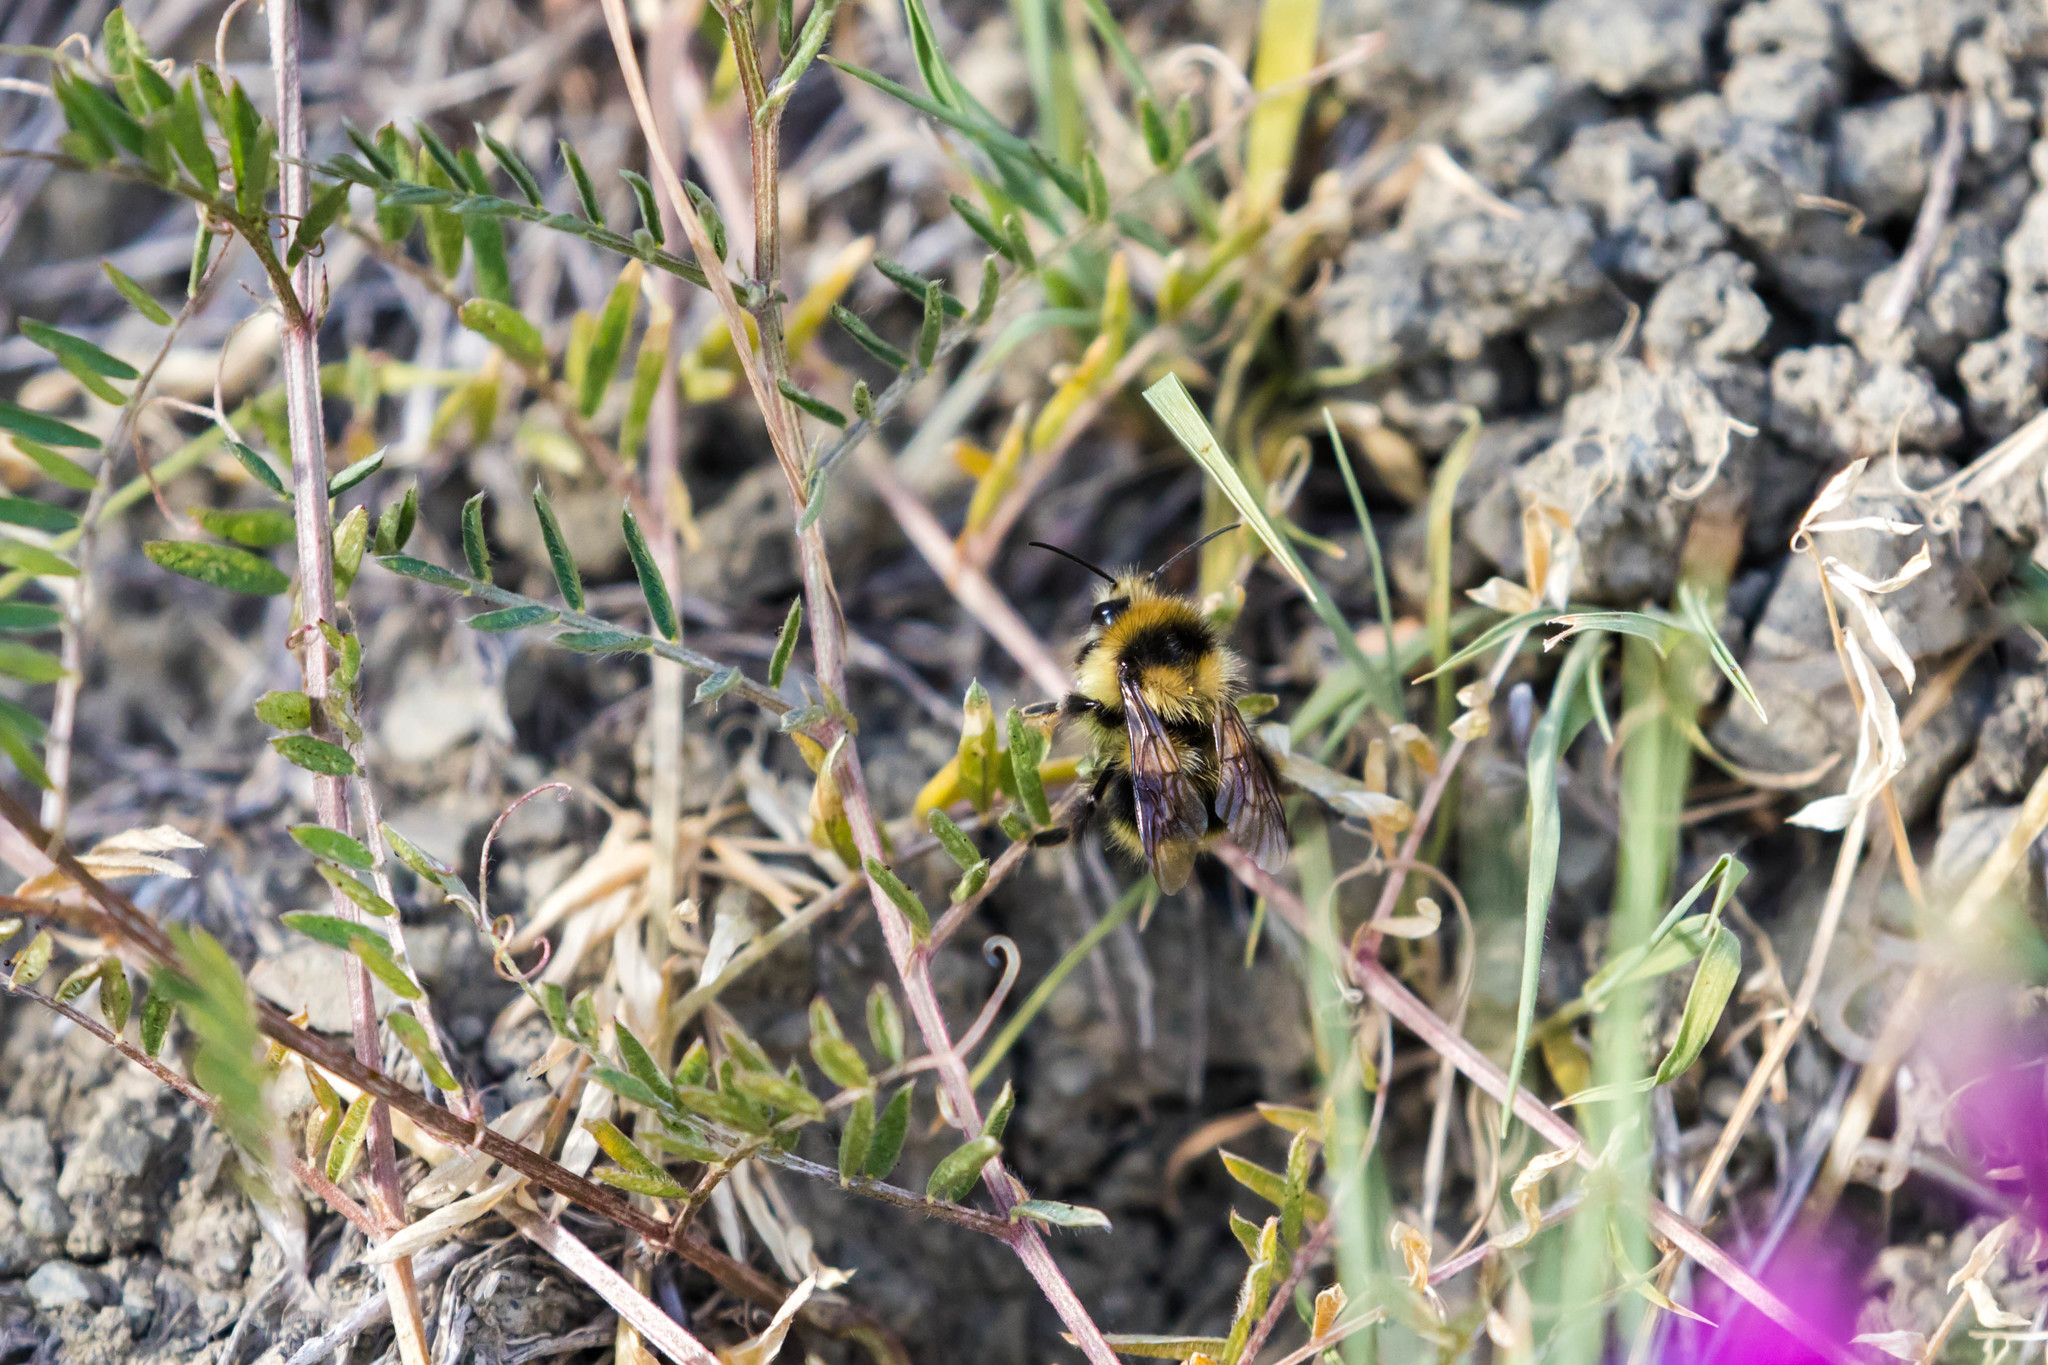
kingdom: Animalia
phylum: Arthropoda
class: Insecta
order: Hymenoptera
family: Apidae
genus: Bombus
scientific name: Bombus melanopygus
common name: Black tail bumble bee
